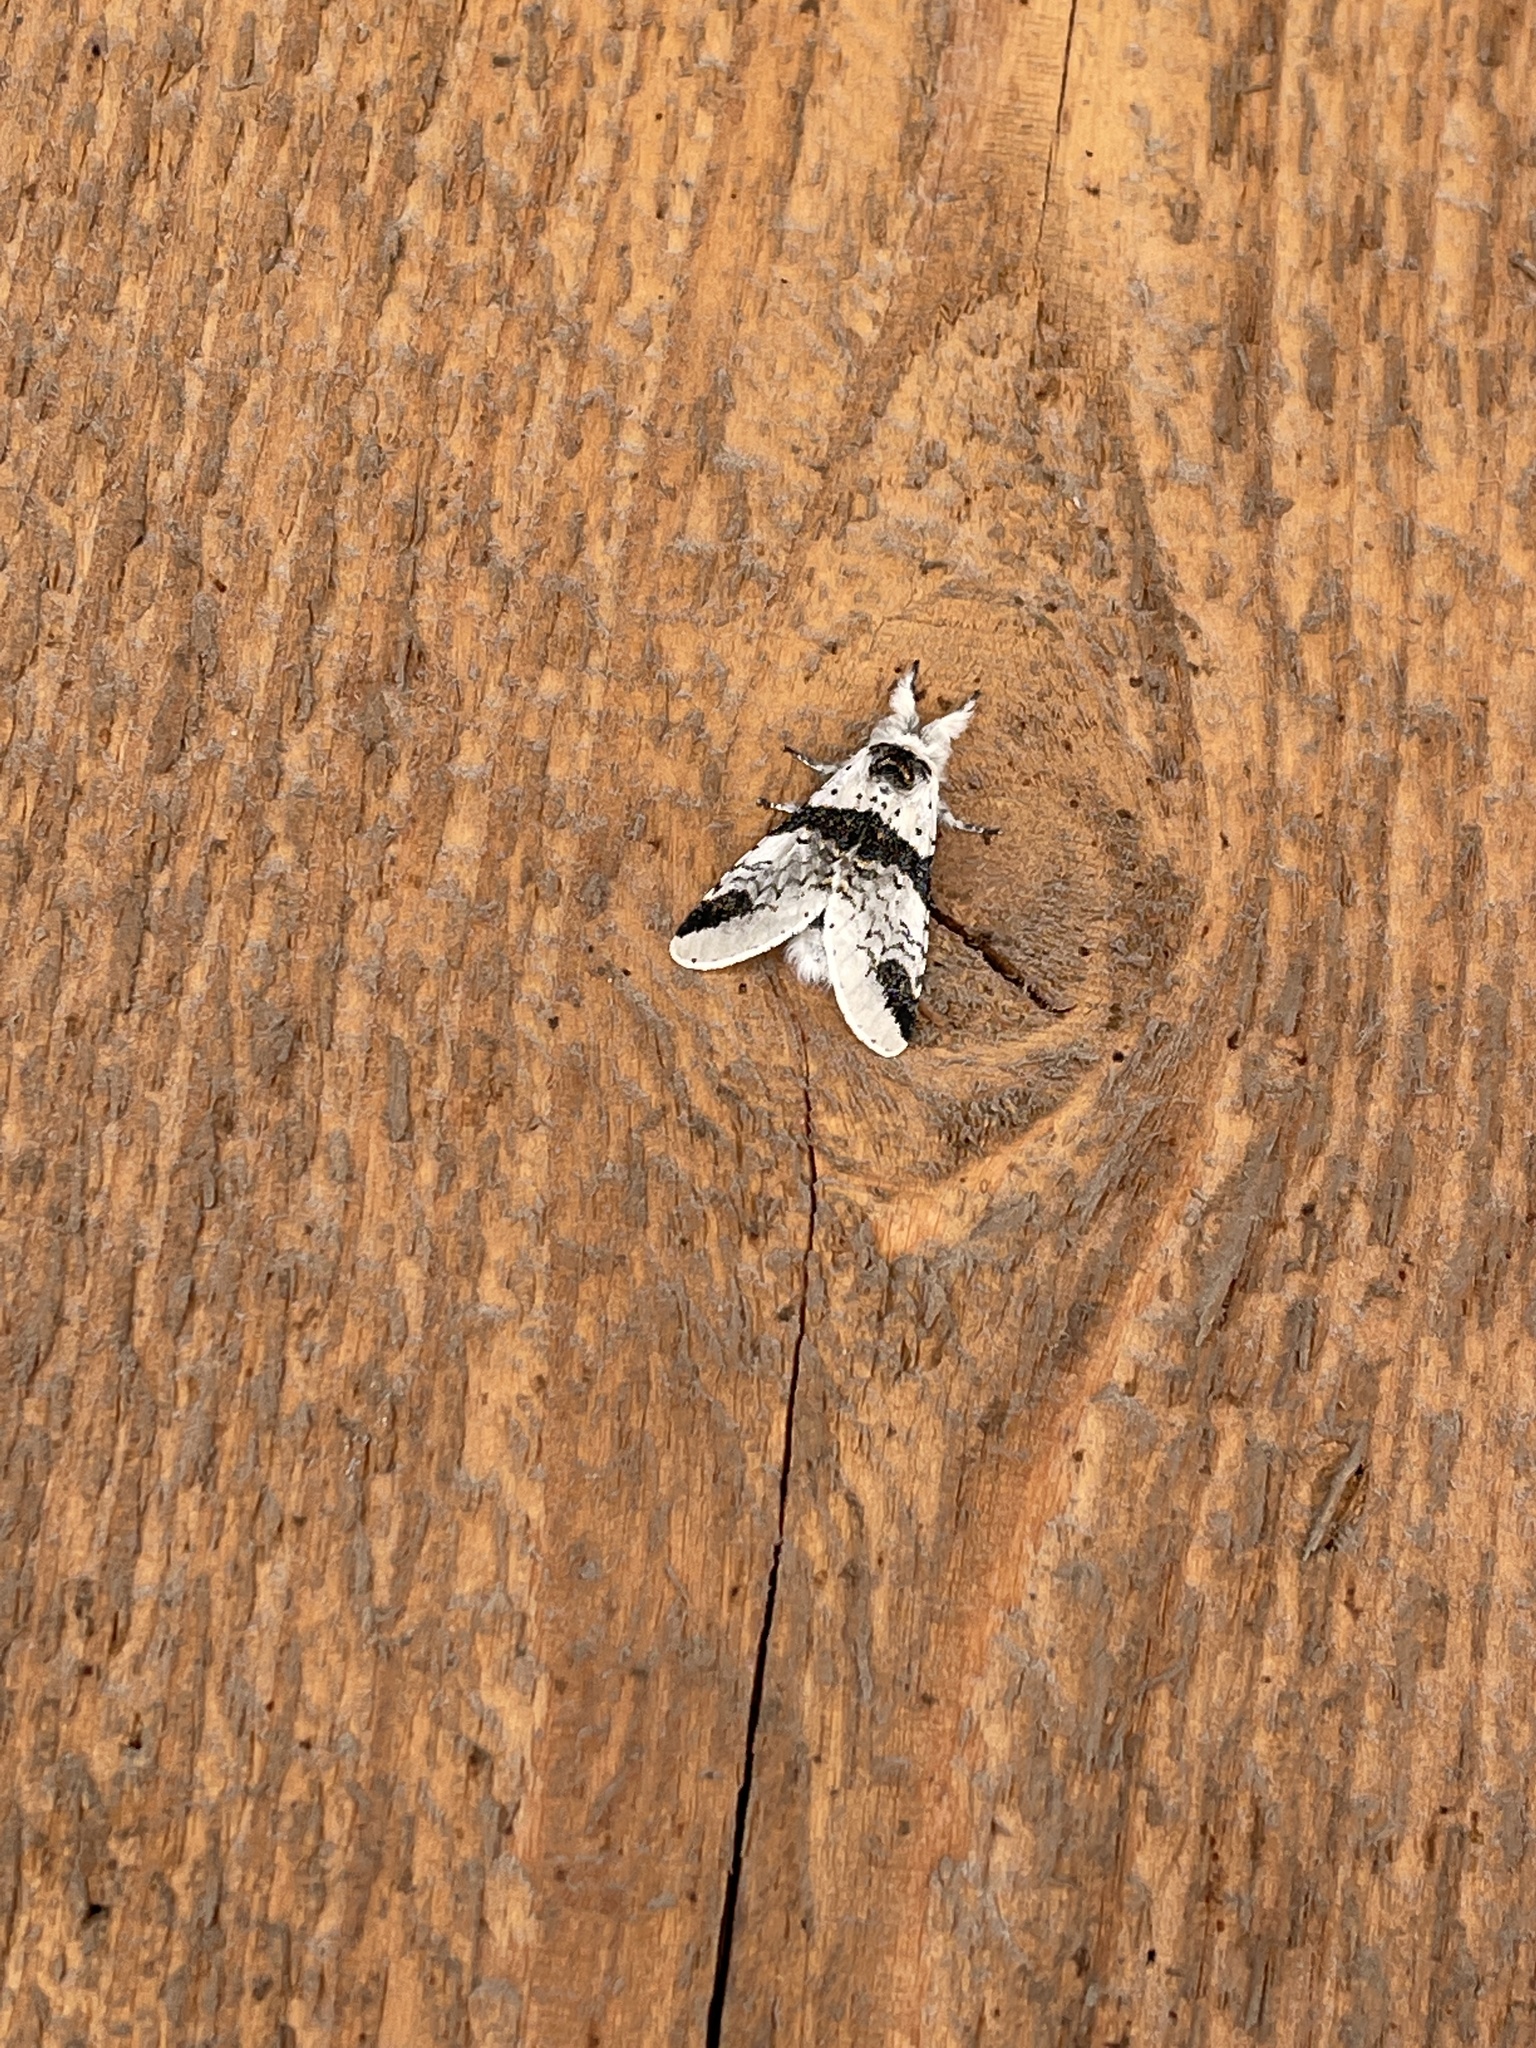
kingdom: Animalia
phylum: Arthropoda
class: Insecta
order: Lepidoptera
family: Notodontidae
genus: Furcula
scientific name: Furcula scolopendrina
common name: Zigzag furcula moth
